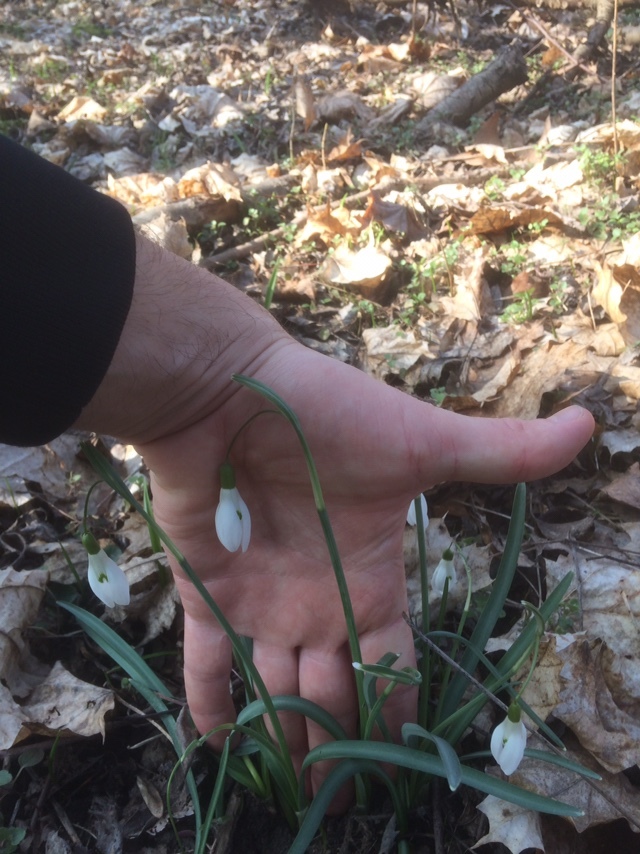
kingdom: Plantae
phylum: Tracheophyta
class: Liliopsida
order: Asparagales
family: Amaryllidaceae
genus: Galanthus
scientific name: Galanthus nivalis
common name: Snowdrop
